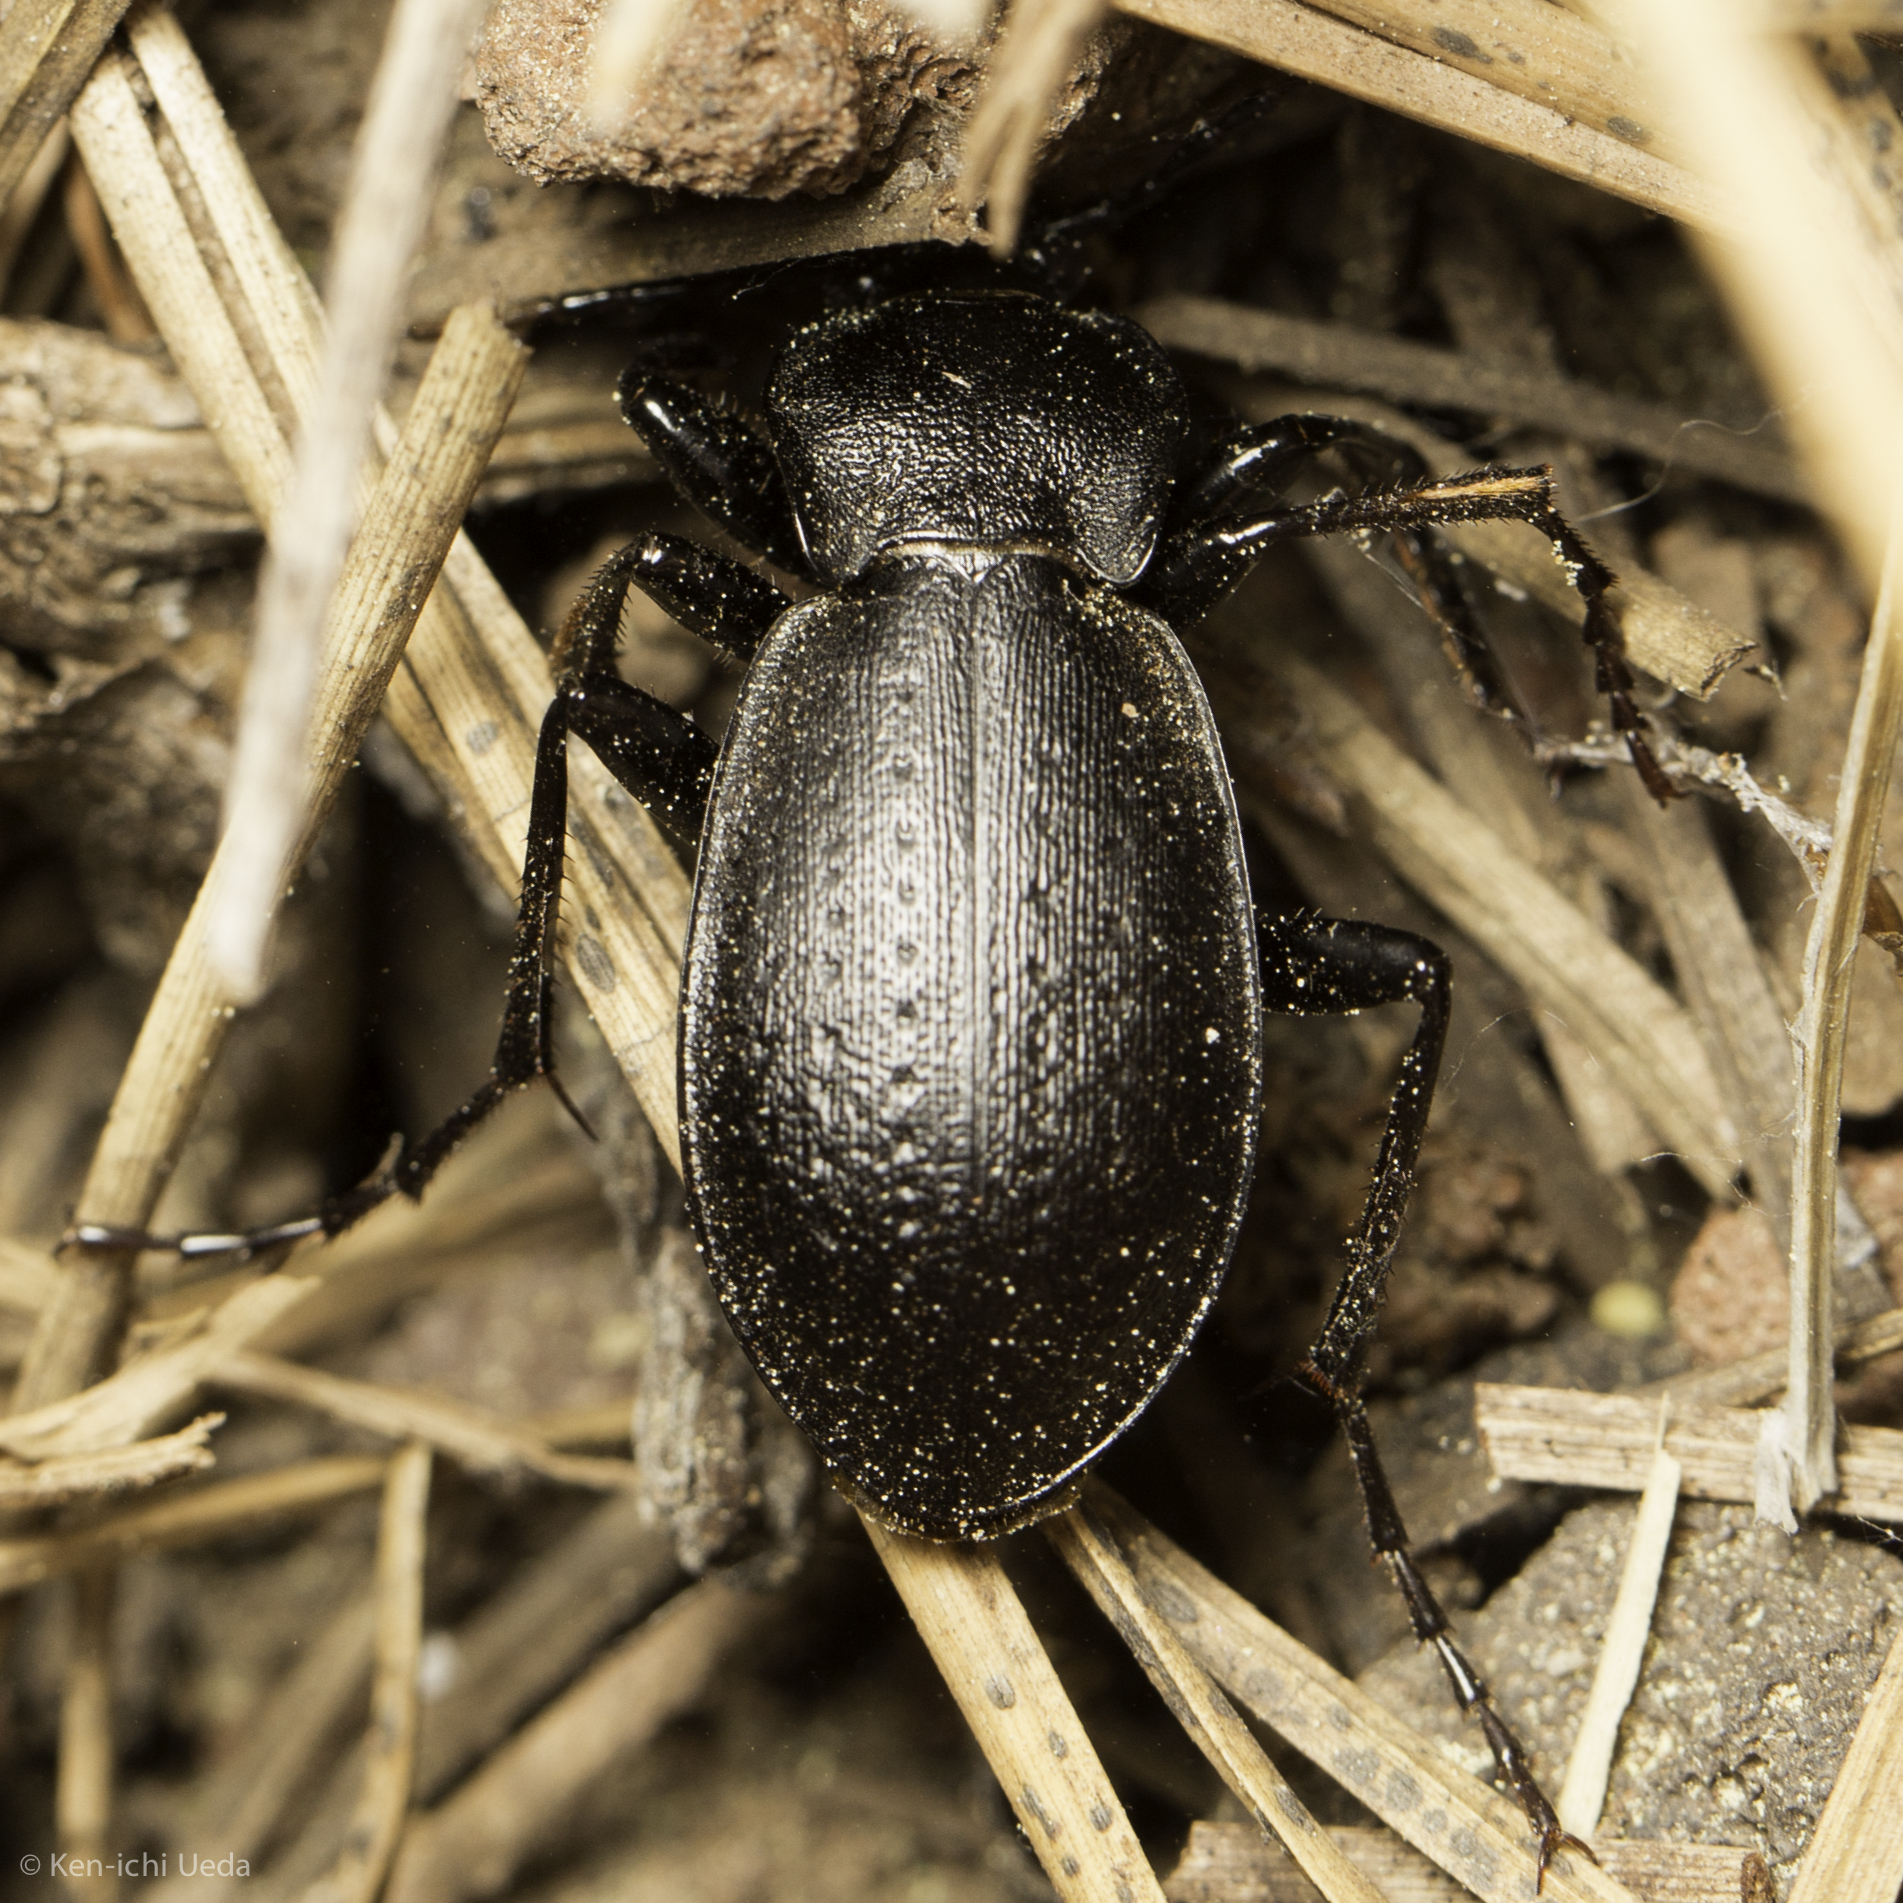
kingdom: Animalia
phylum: Arthropoda
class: Insecta
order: Coleoptera
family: Carabidae
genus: Carabus
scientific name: Carabus taedatus
